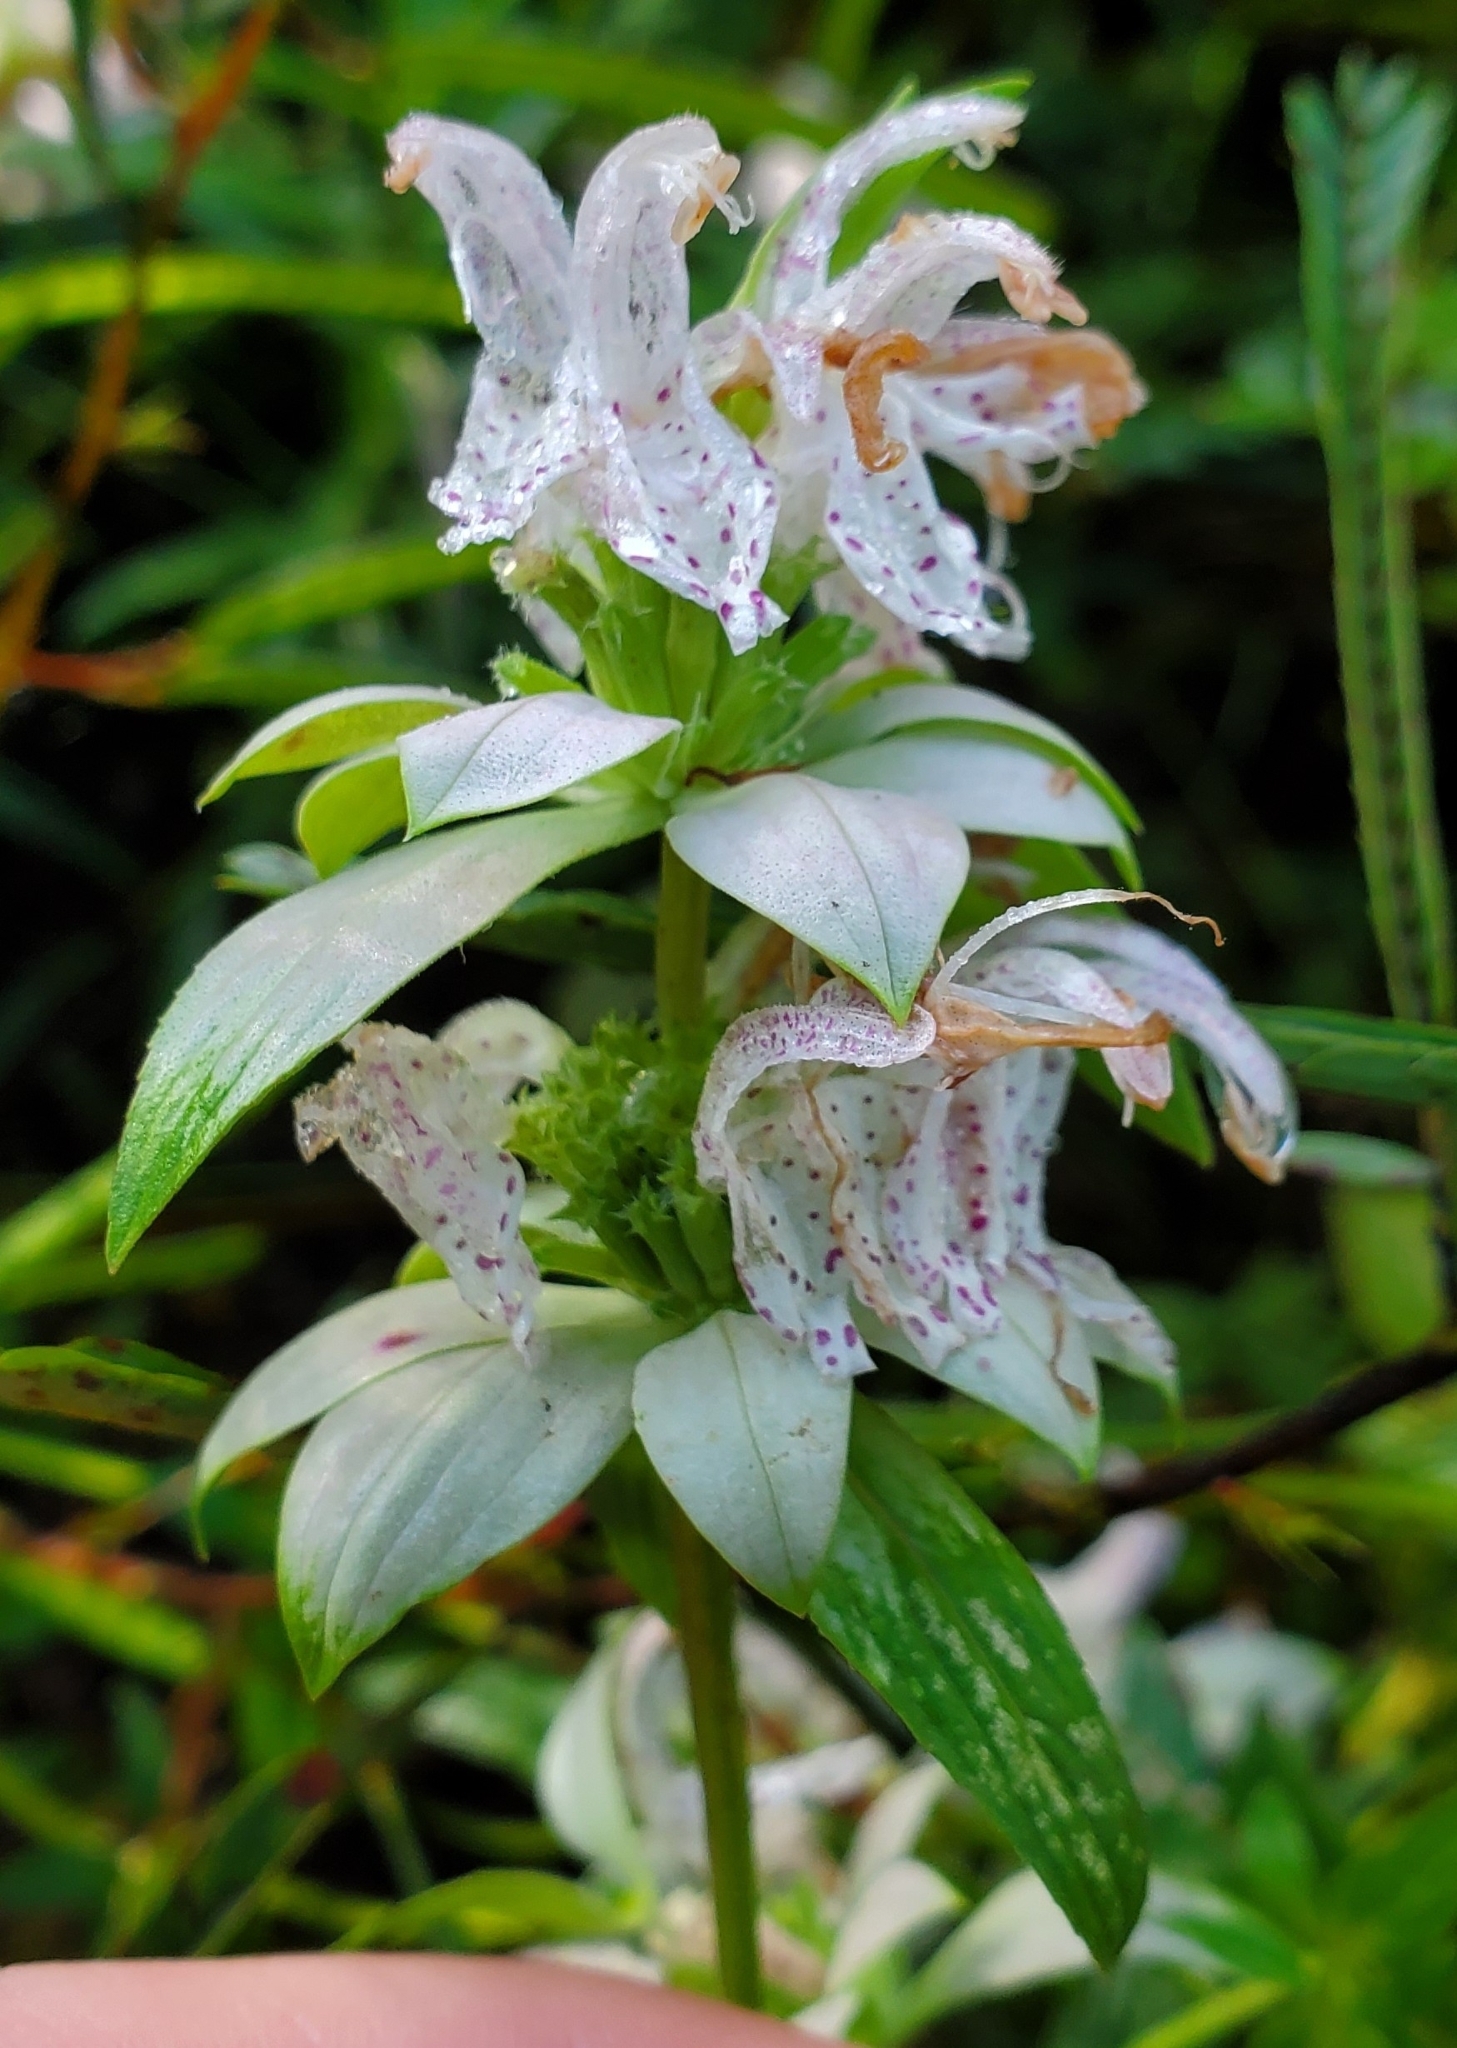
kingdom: Plantae
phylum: Tracheophyta
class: Magnoliopsida
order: Lamiales
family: Lamiaceae
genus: Monarda
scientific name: Monarda punctata
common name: Dotted monarda
